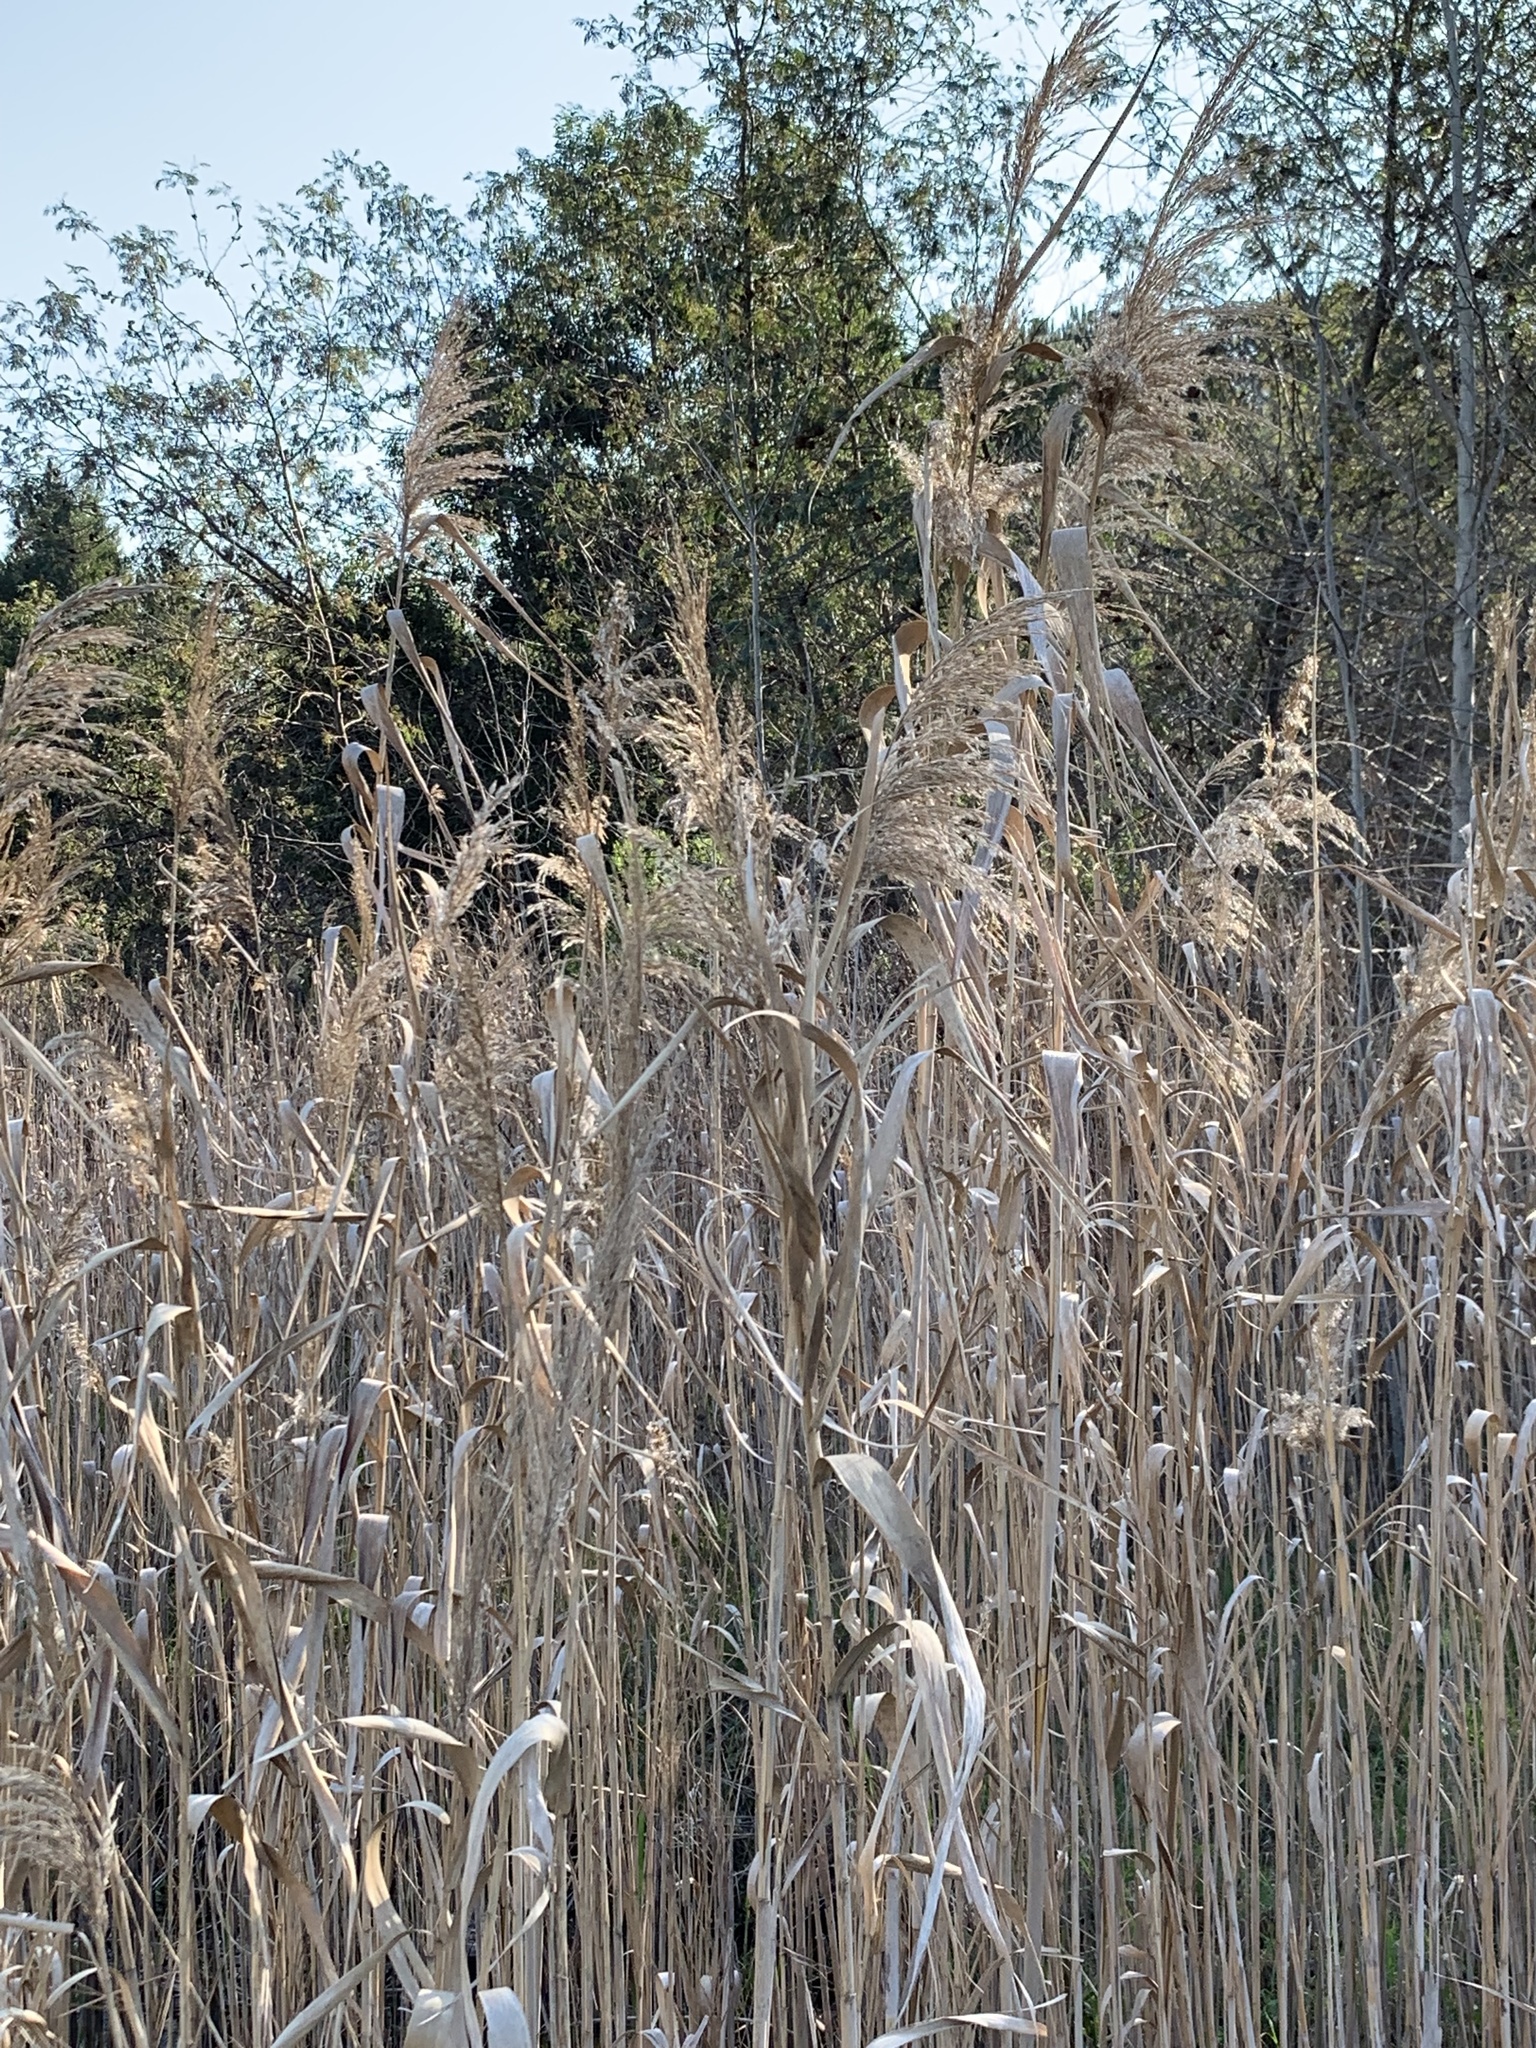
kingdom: Plantae
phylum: Tracheophyta
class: Liliopsida
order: Poales
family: Poaceae
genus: Phragmites
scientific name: Phragmites australis
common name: Common reed
